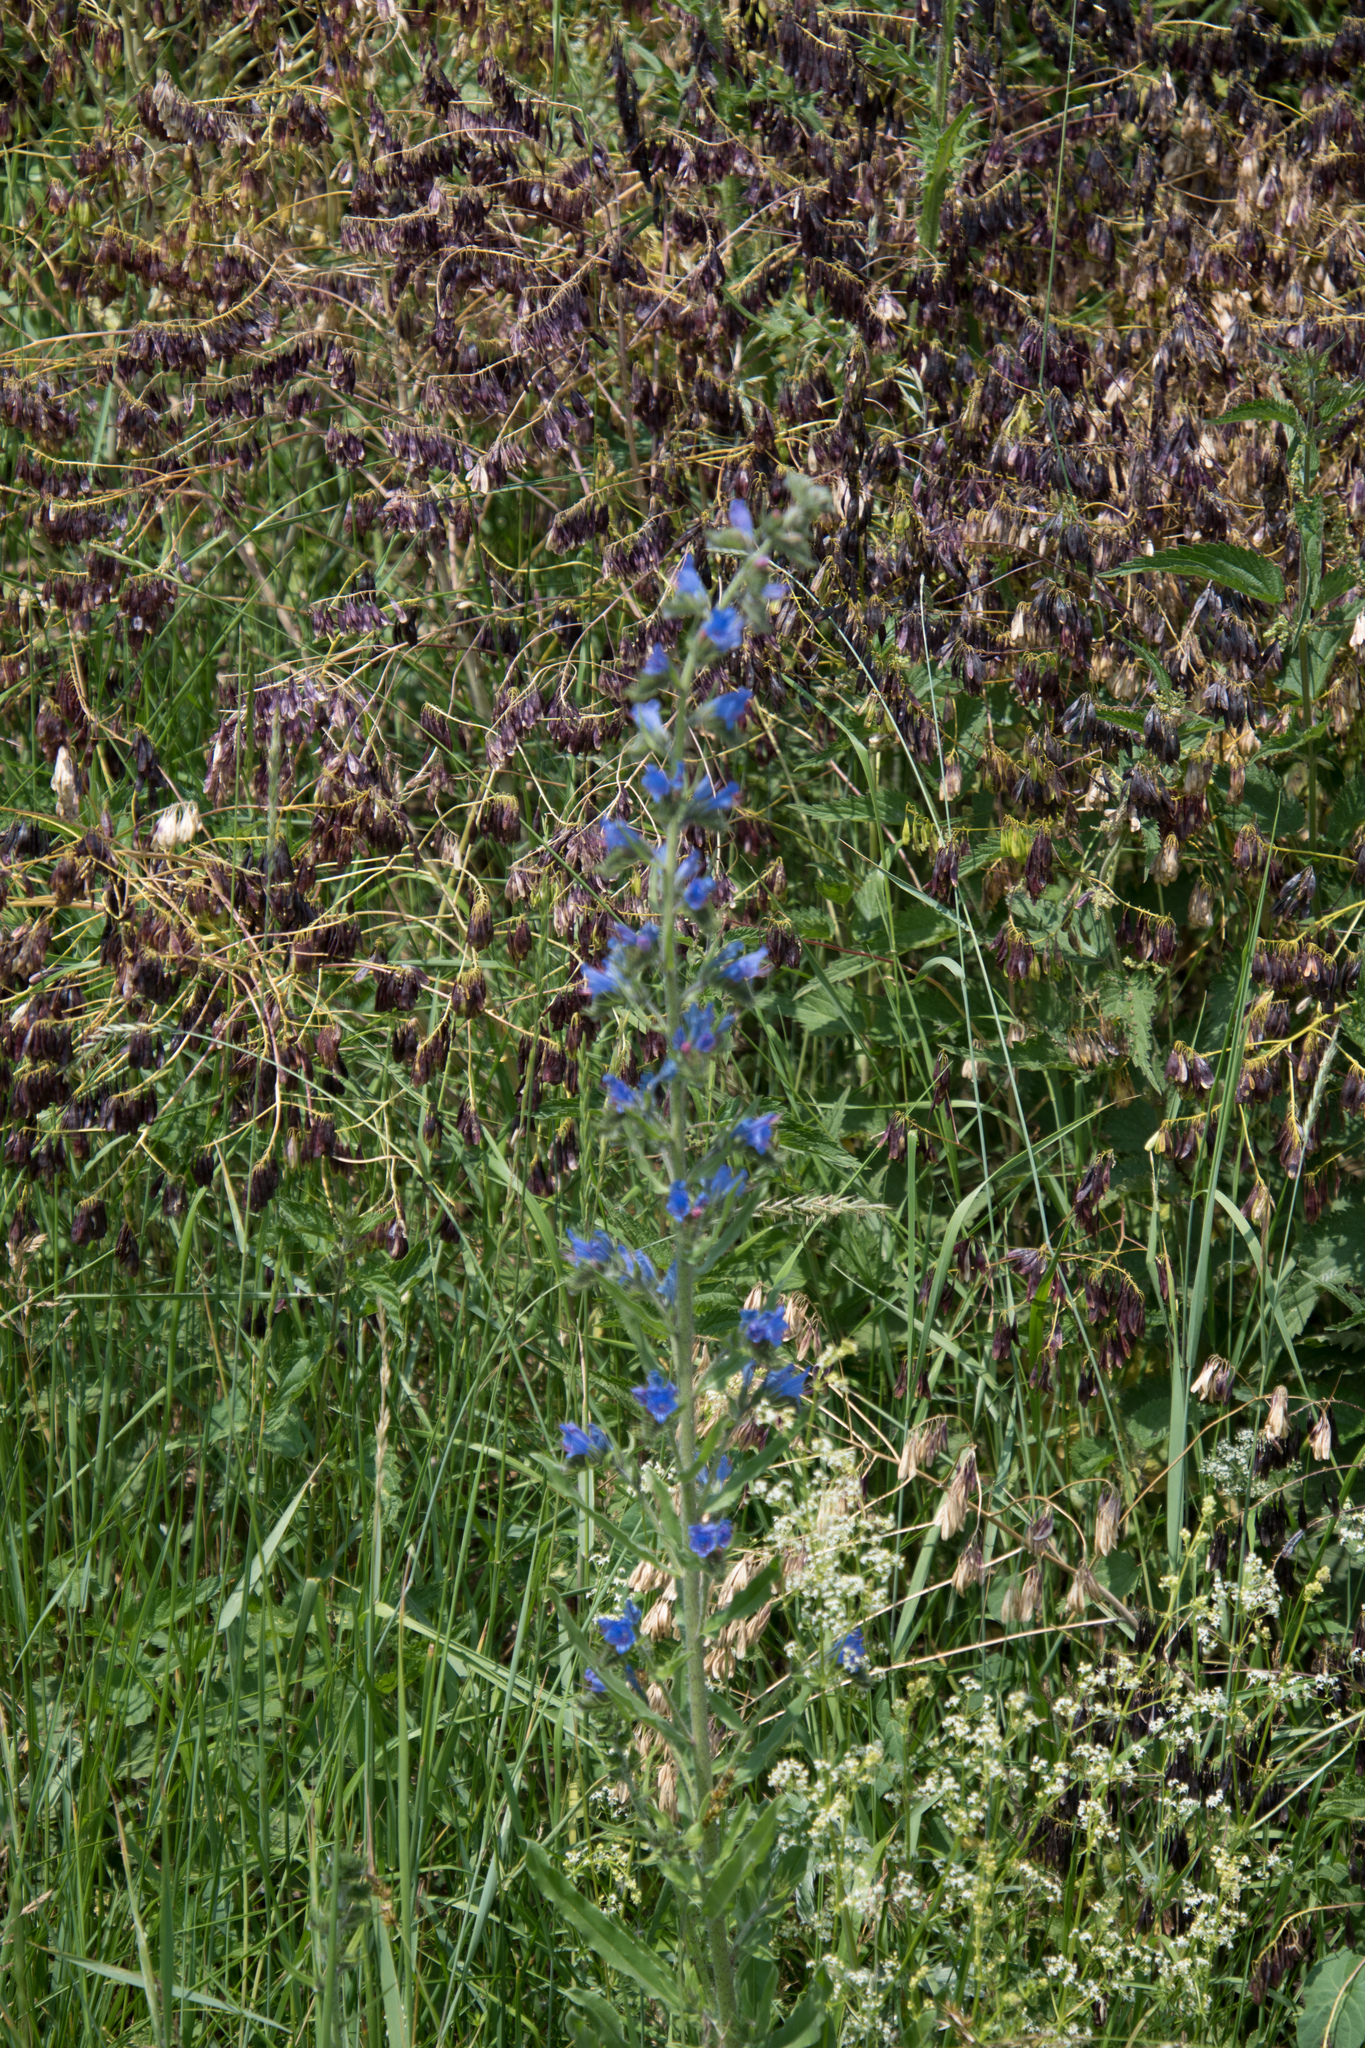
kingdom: Plantae
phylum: Tracheophyta
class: Magnoliopsida
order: Boraginales
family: Boraginaceae
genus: Echium
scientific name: Echium vulgare
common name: Common viper's bugloss
